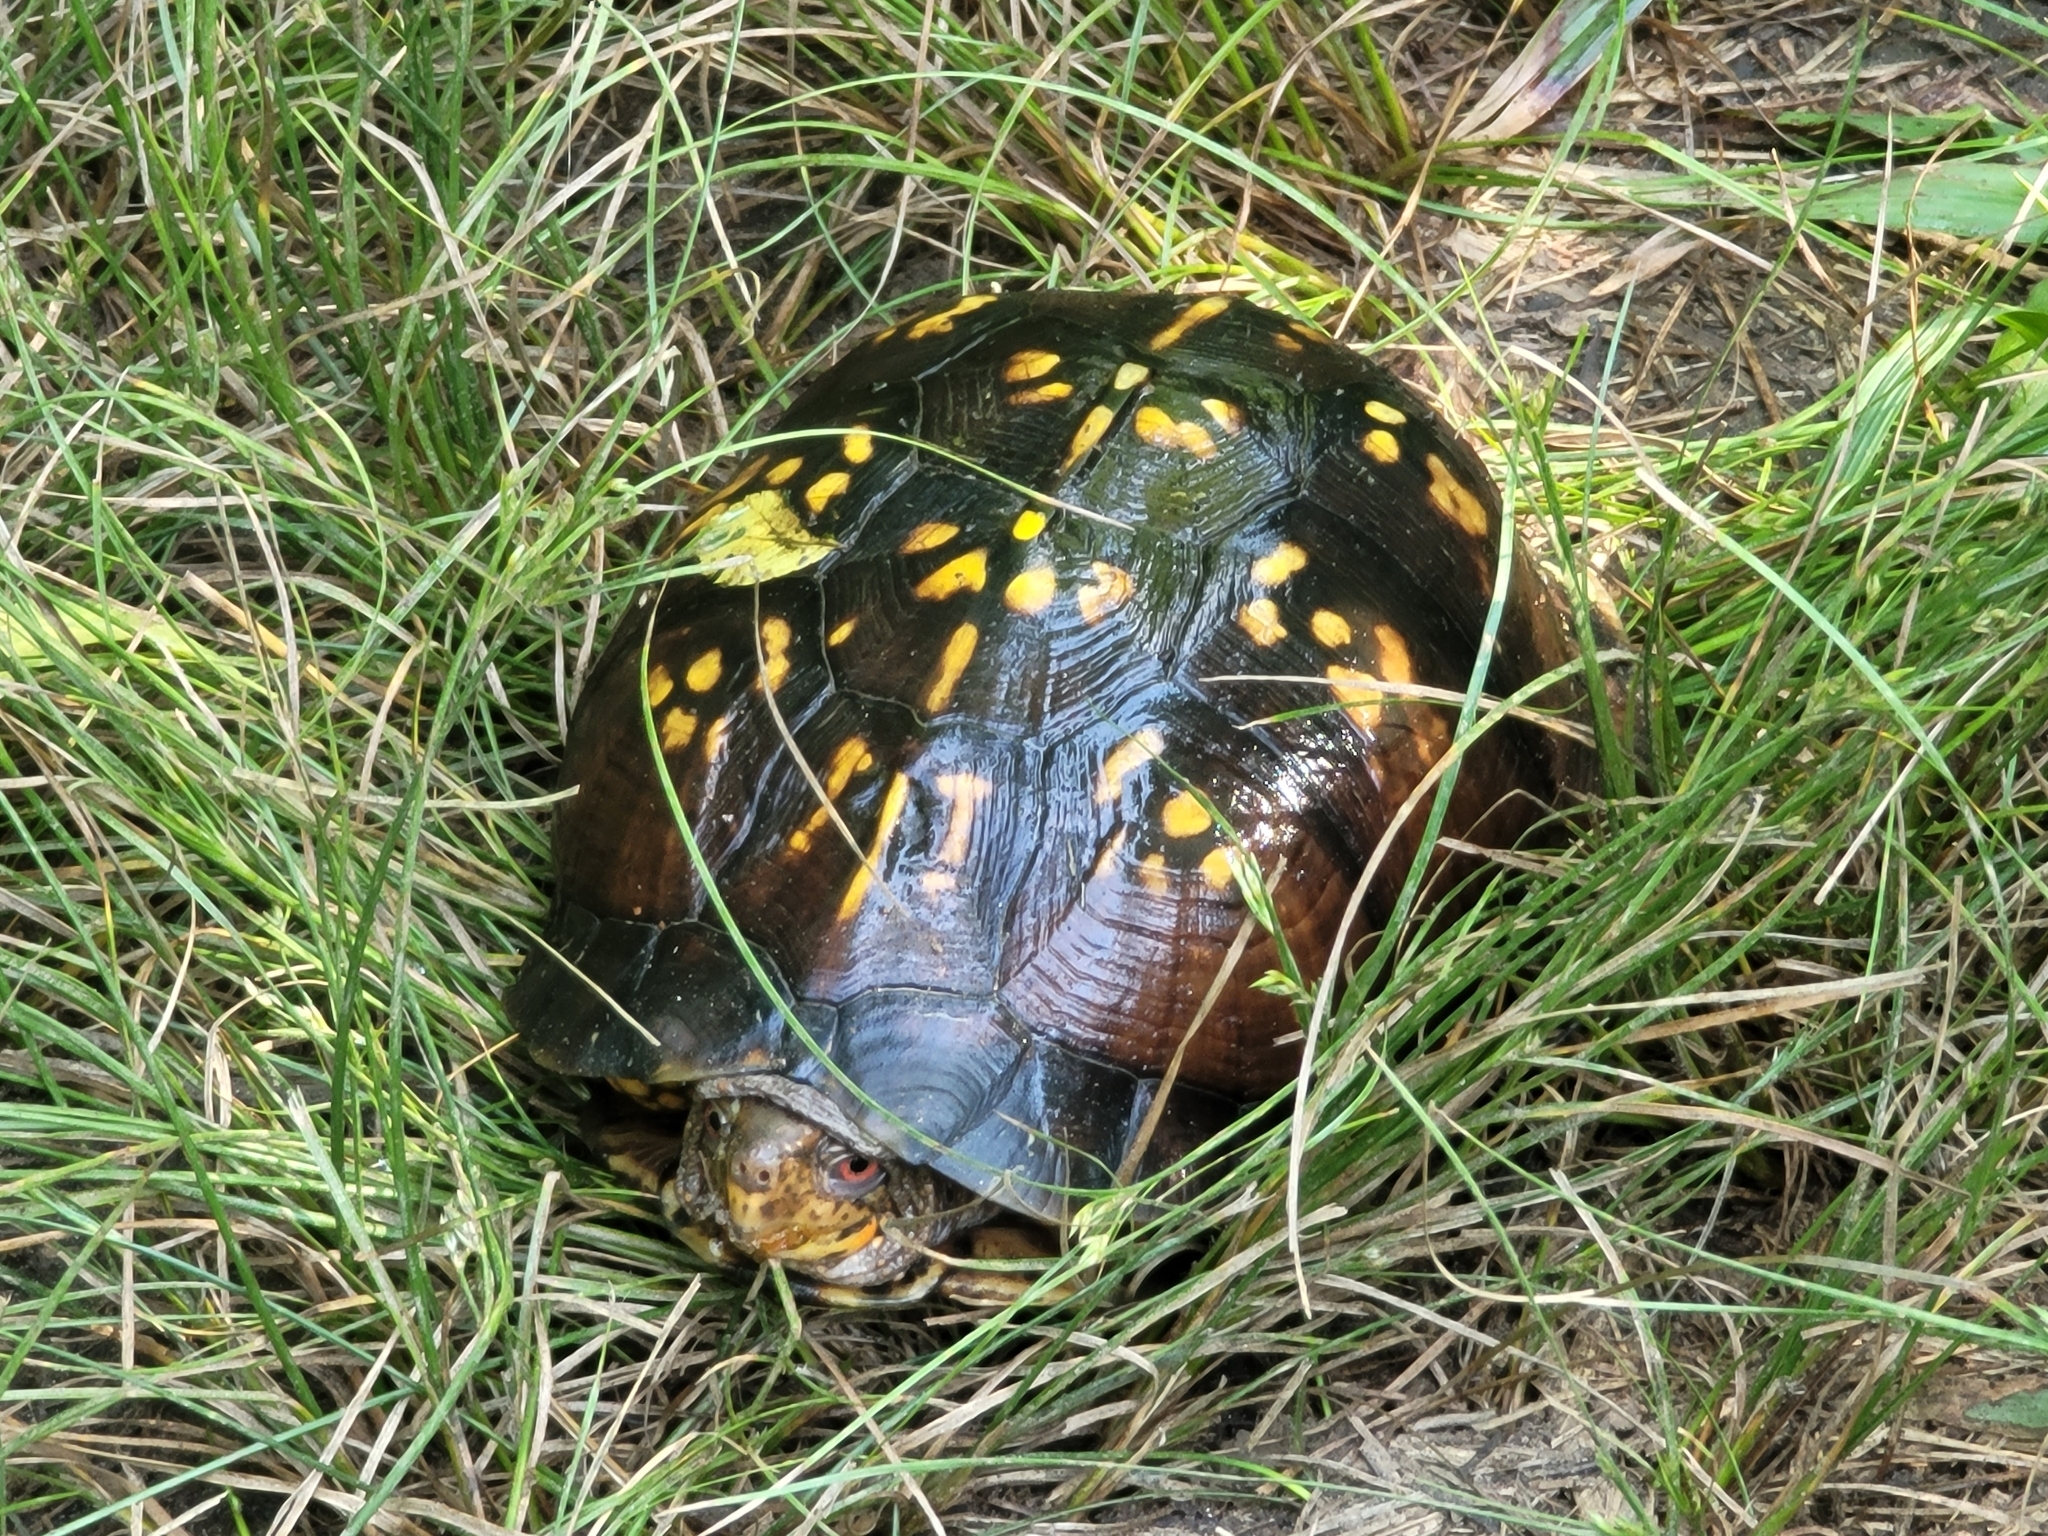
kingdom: Animalia
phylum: Chordata
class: Testudines
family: Emydidae
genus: Terrapene
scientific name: Terrapene carolina
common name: Common box turtle
